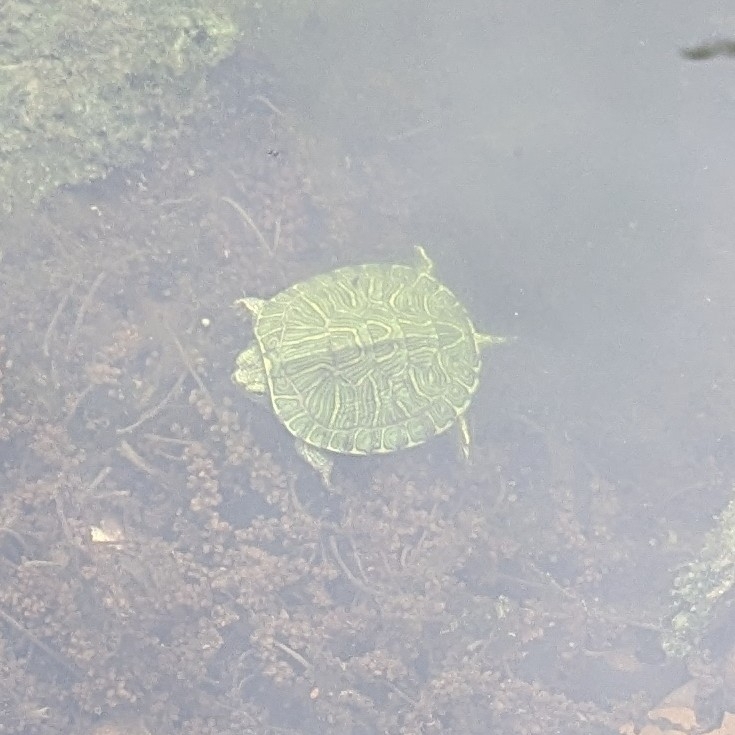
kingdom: Animalia
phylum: Chordata
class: Testudines
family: Emydidae
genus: Trachemys
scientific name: Trachemys scripta
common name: Slider
